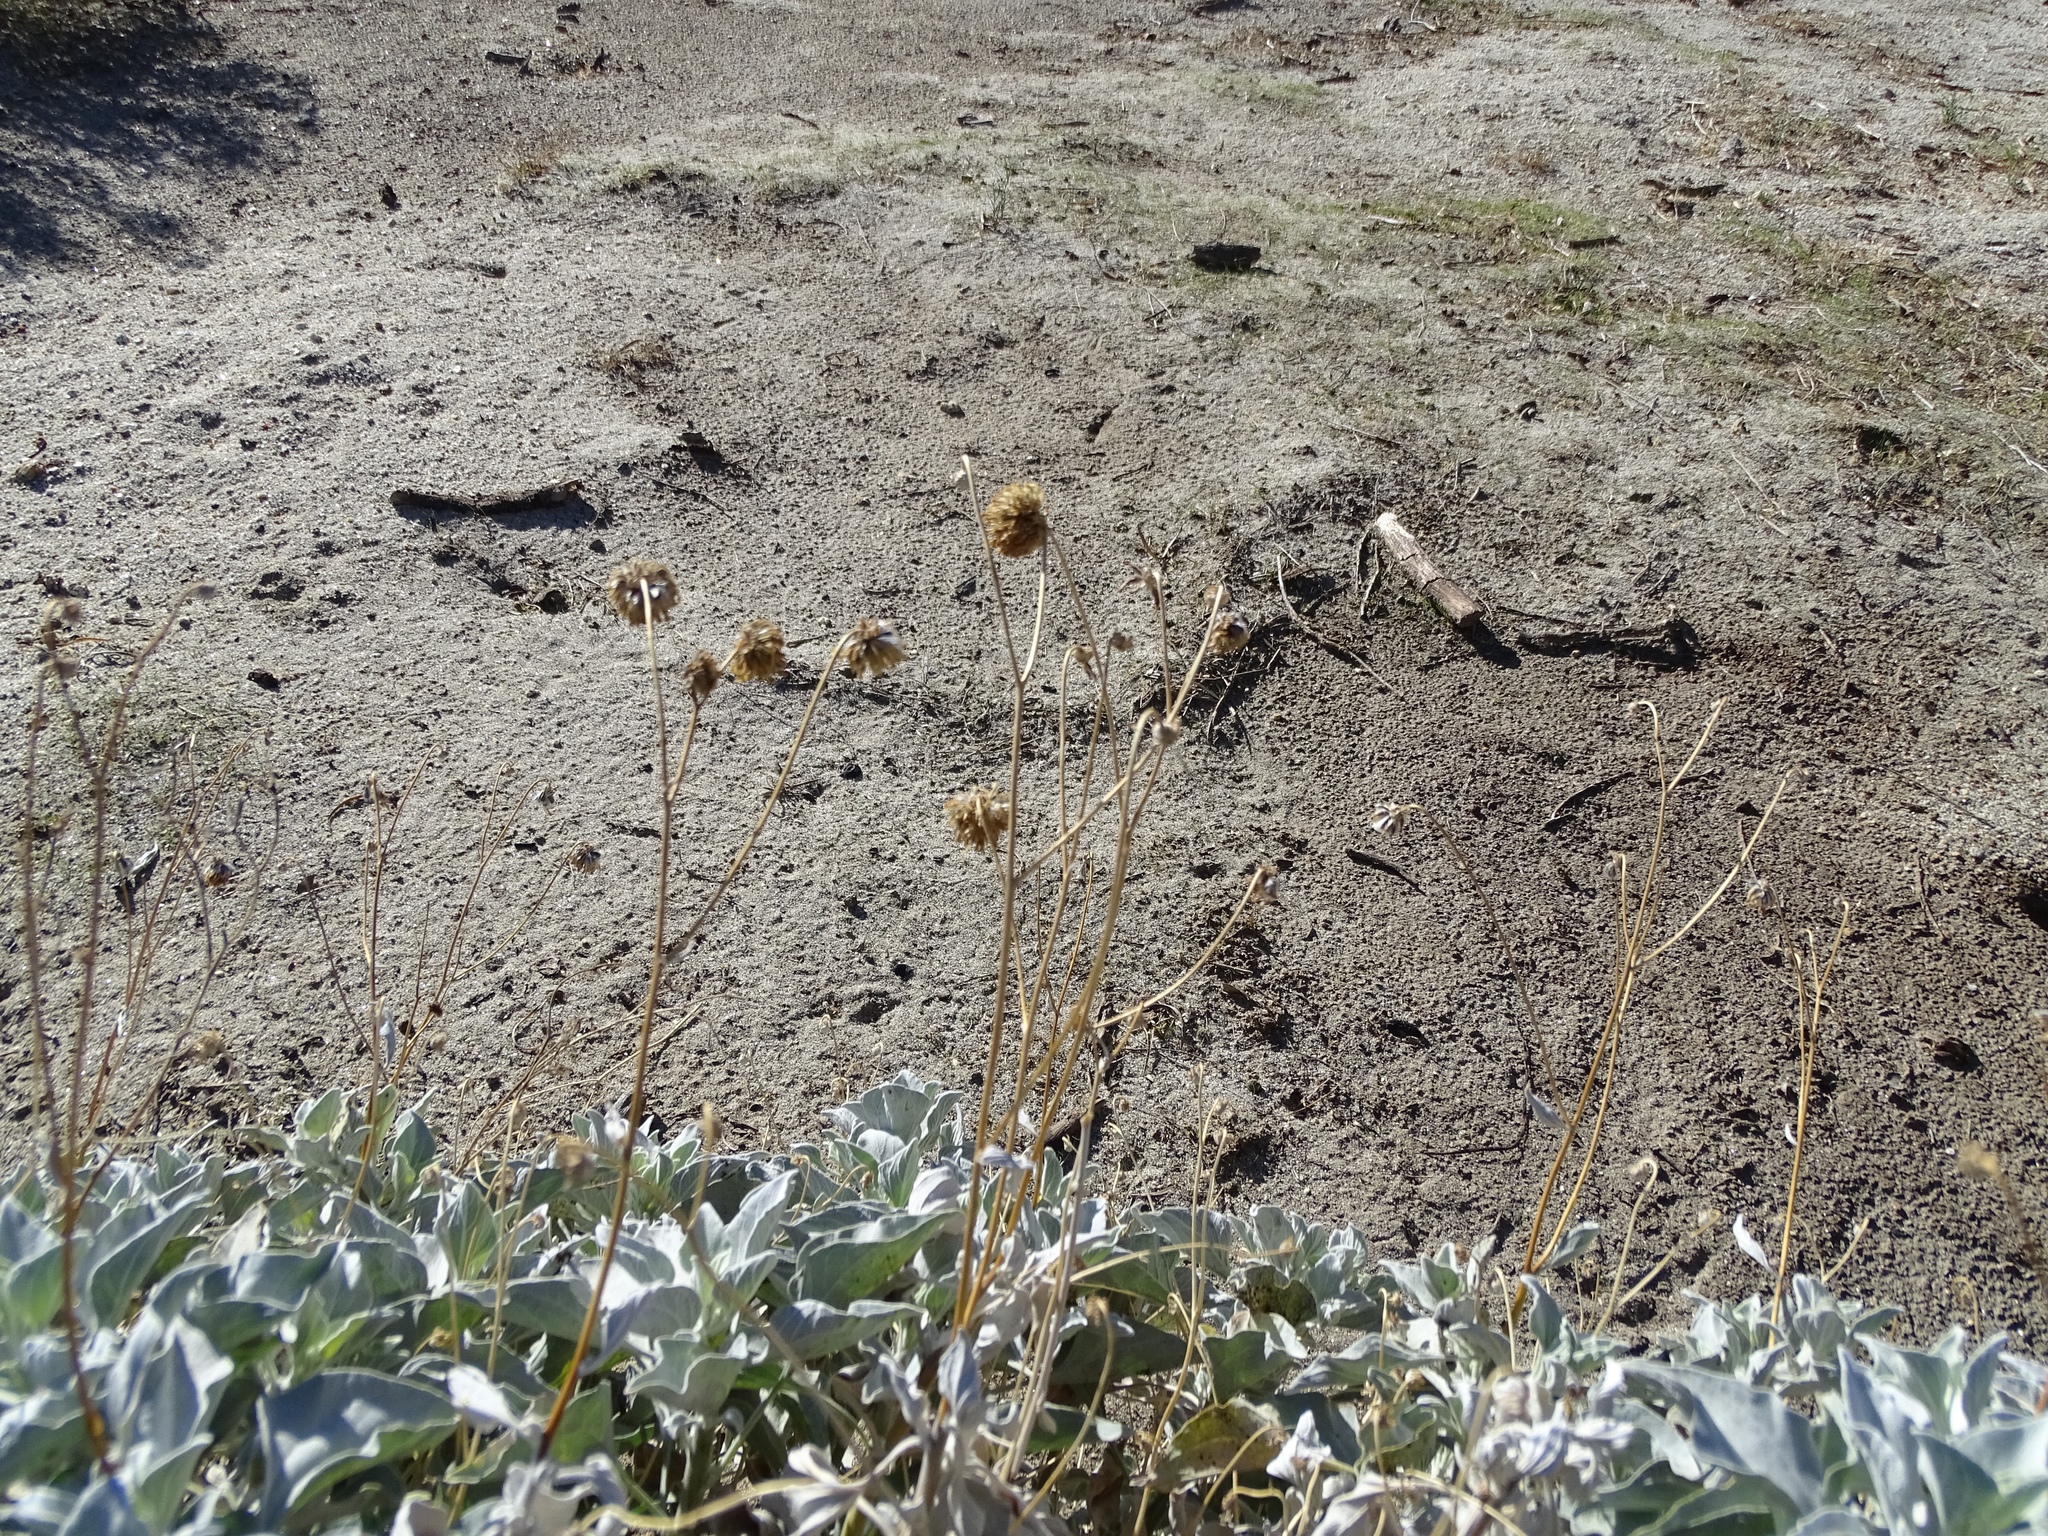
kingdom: Plantae
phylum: Tracheophyta
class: Magnoliopsida
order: Asterales
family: Asteraceae
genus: Encelia
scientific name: Encelia farinosa
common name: Brittlebush
